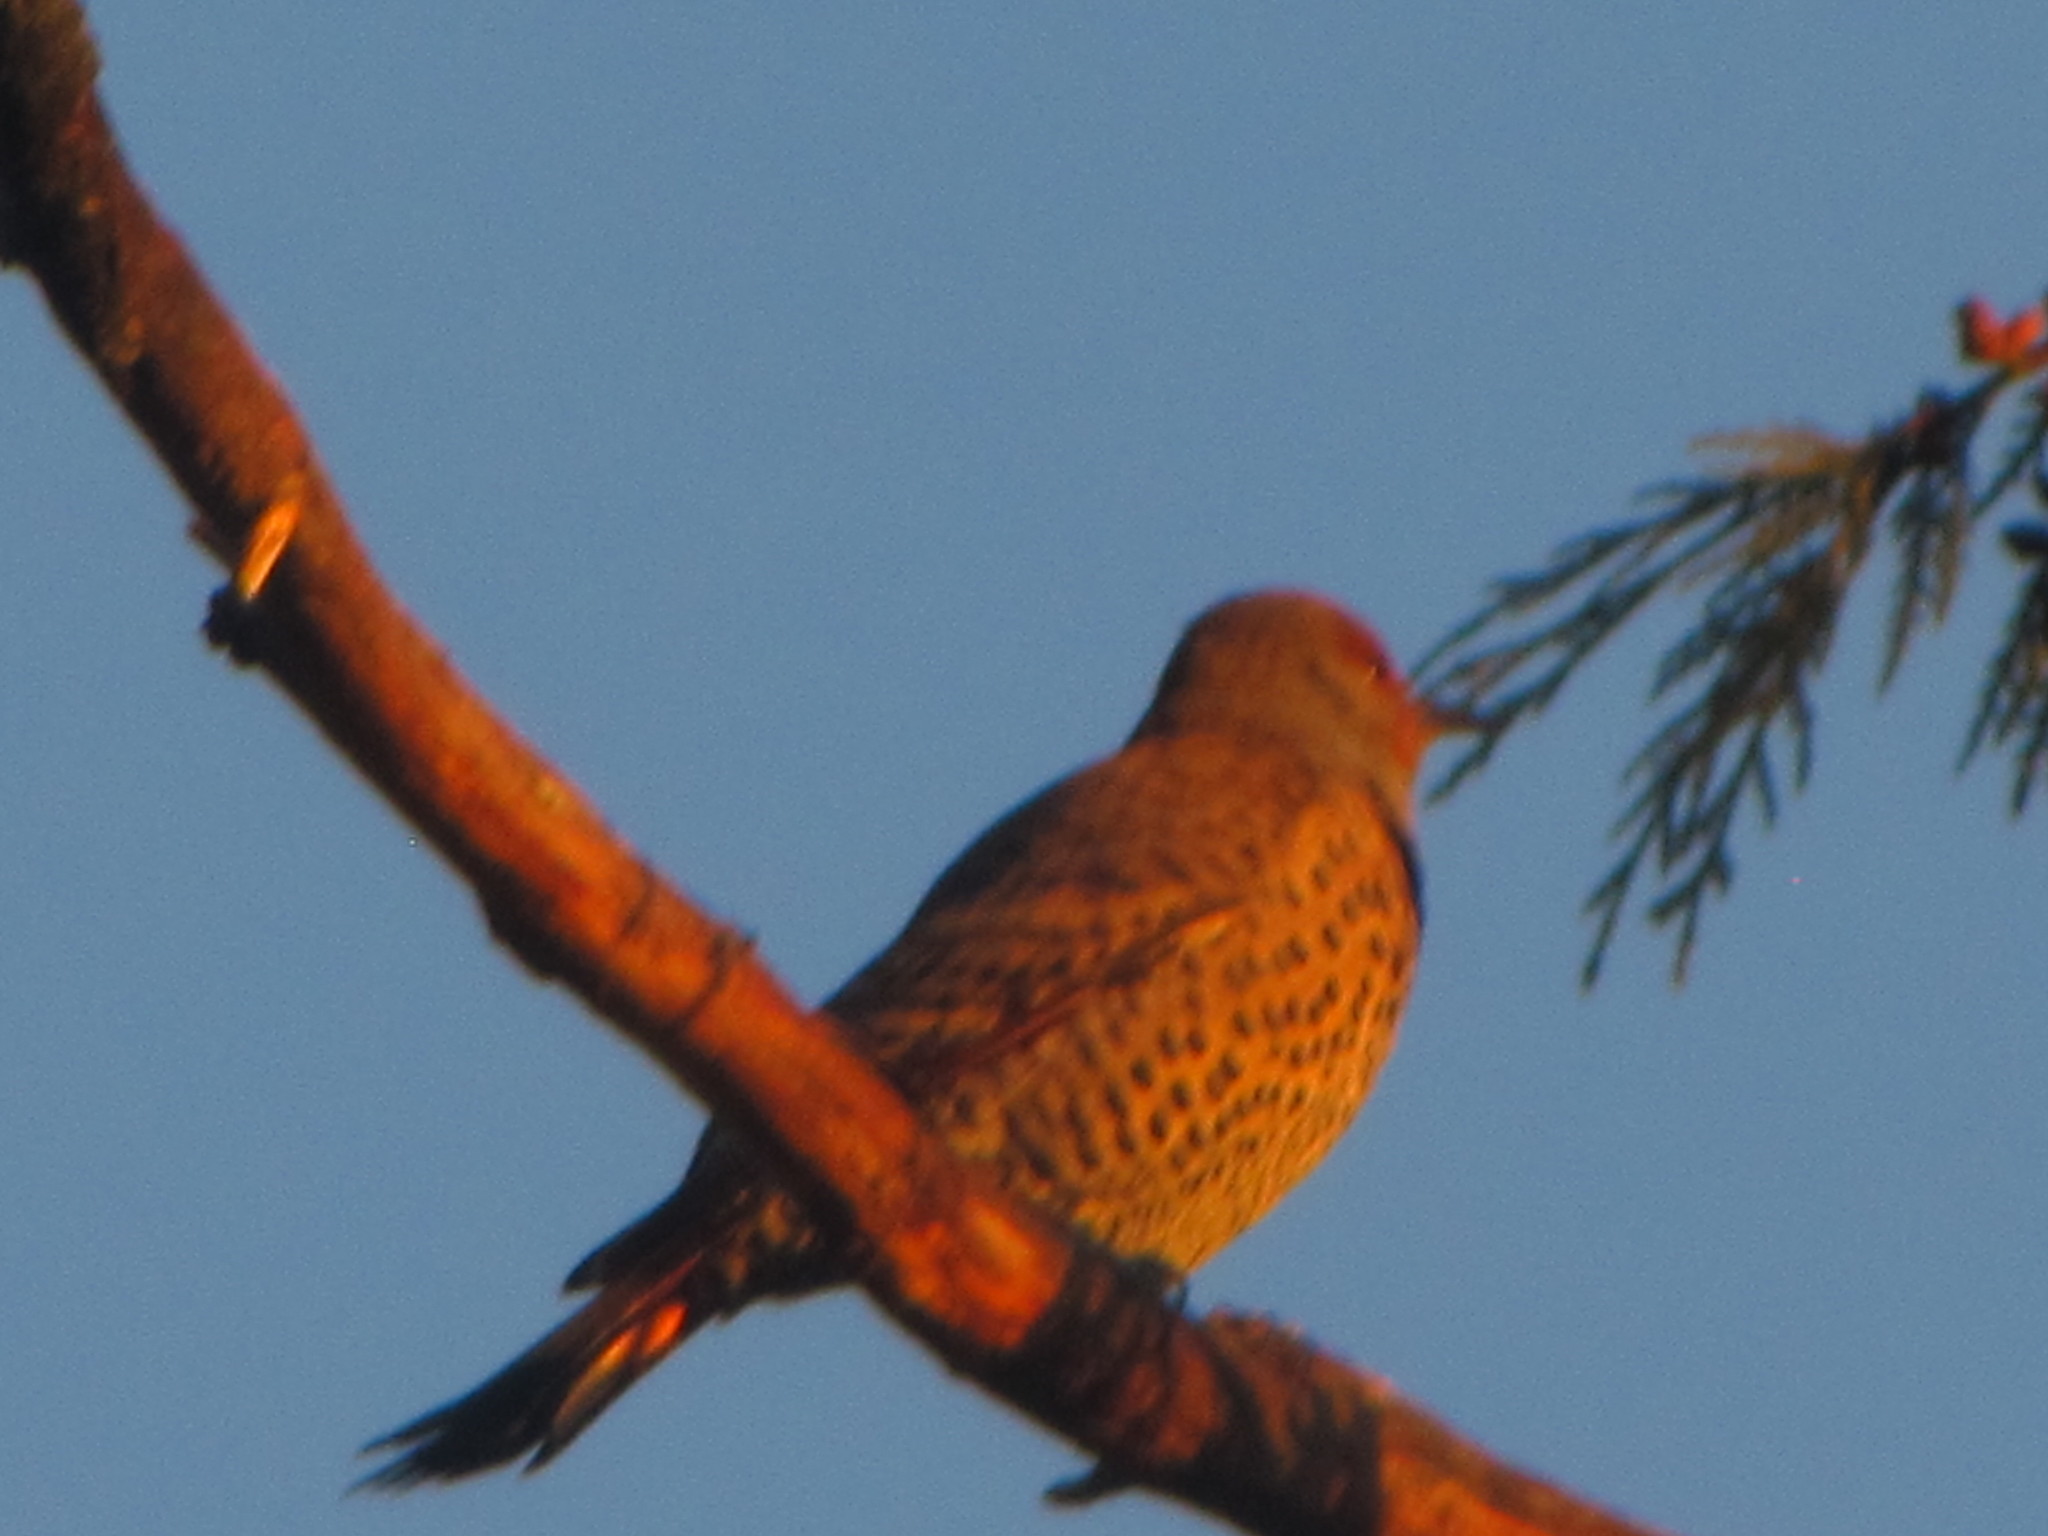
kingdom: Animalia
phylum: Chordata
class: Aves
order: Piciformes
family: Picidae
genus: Colaptes
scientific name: Colaptes auratus
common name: Northern flicker
